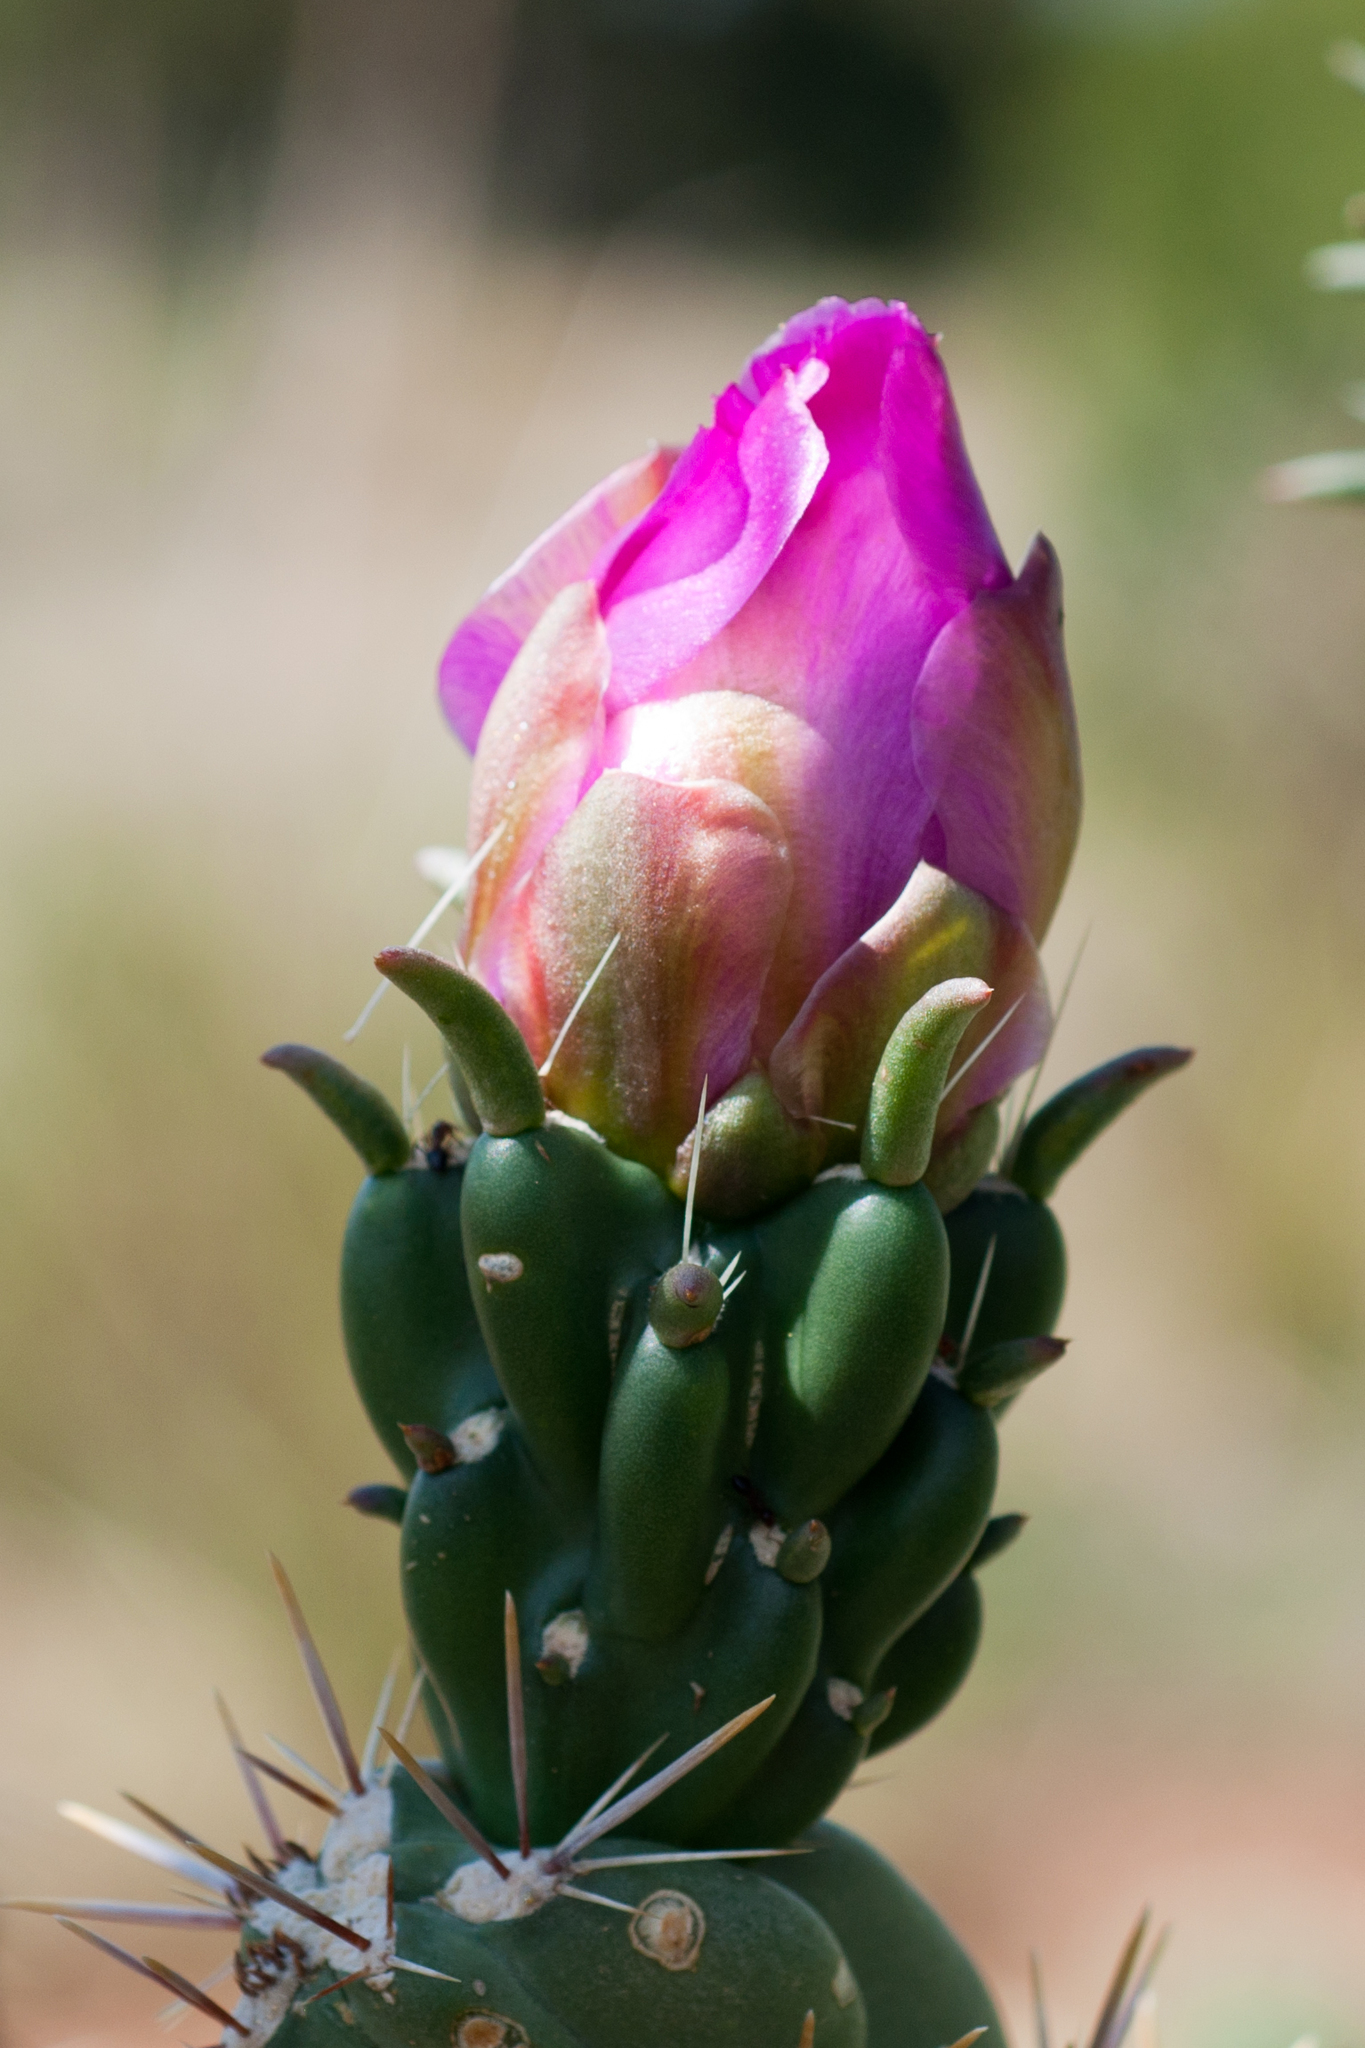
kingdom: Plantae
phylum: Tracheophyta
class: Magnoliopsida
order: Caryophyllales
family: Cactaceae
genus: Cylindropuntia
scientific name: Cylindropuntia imbricata
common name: Candelabrum cactus
